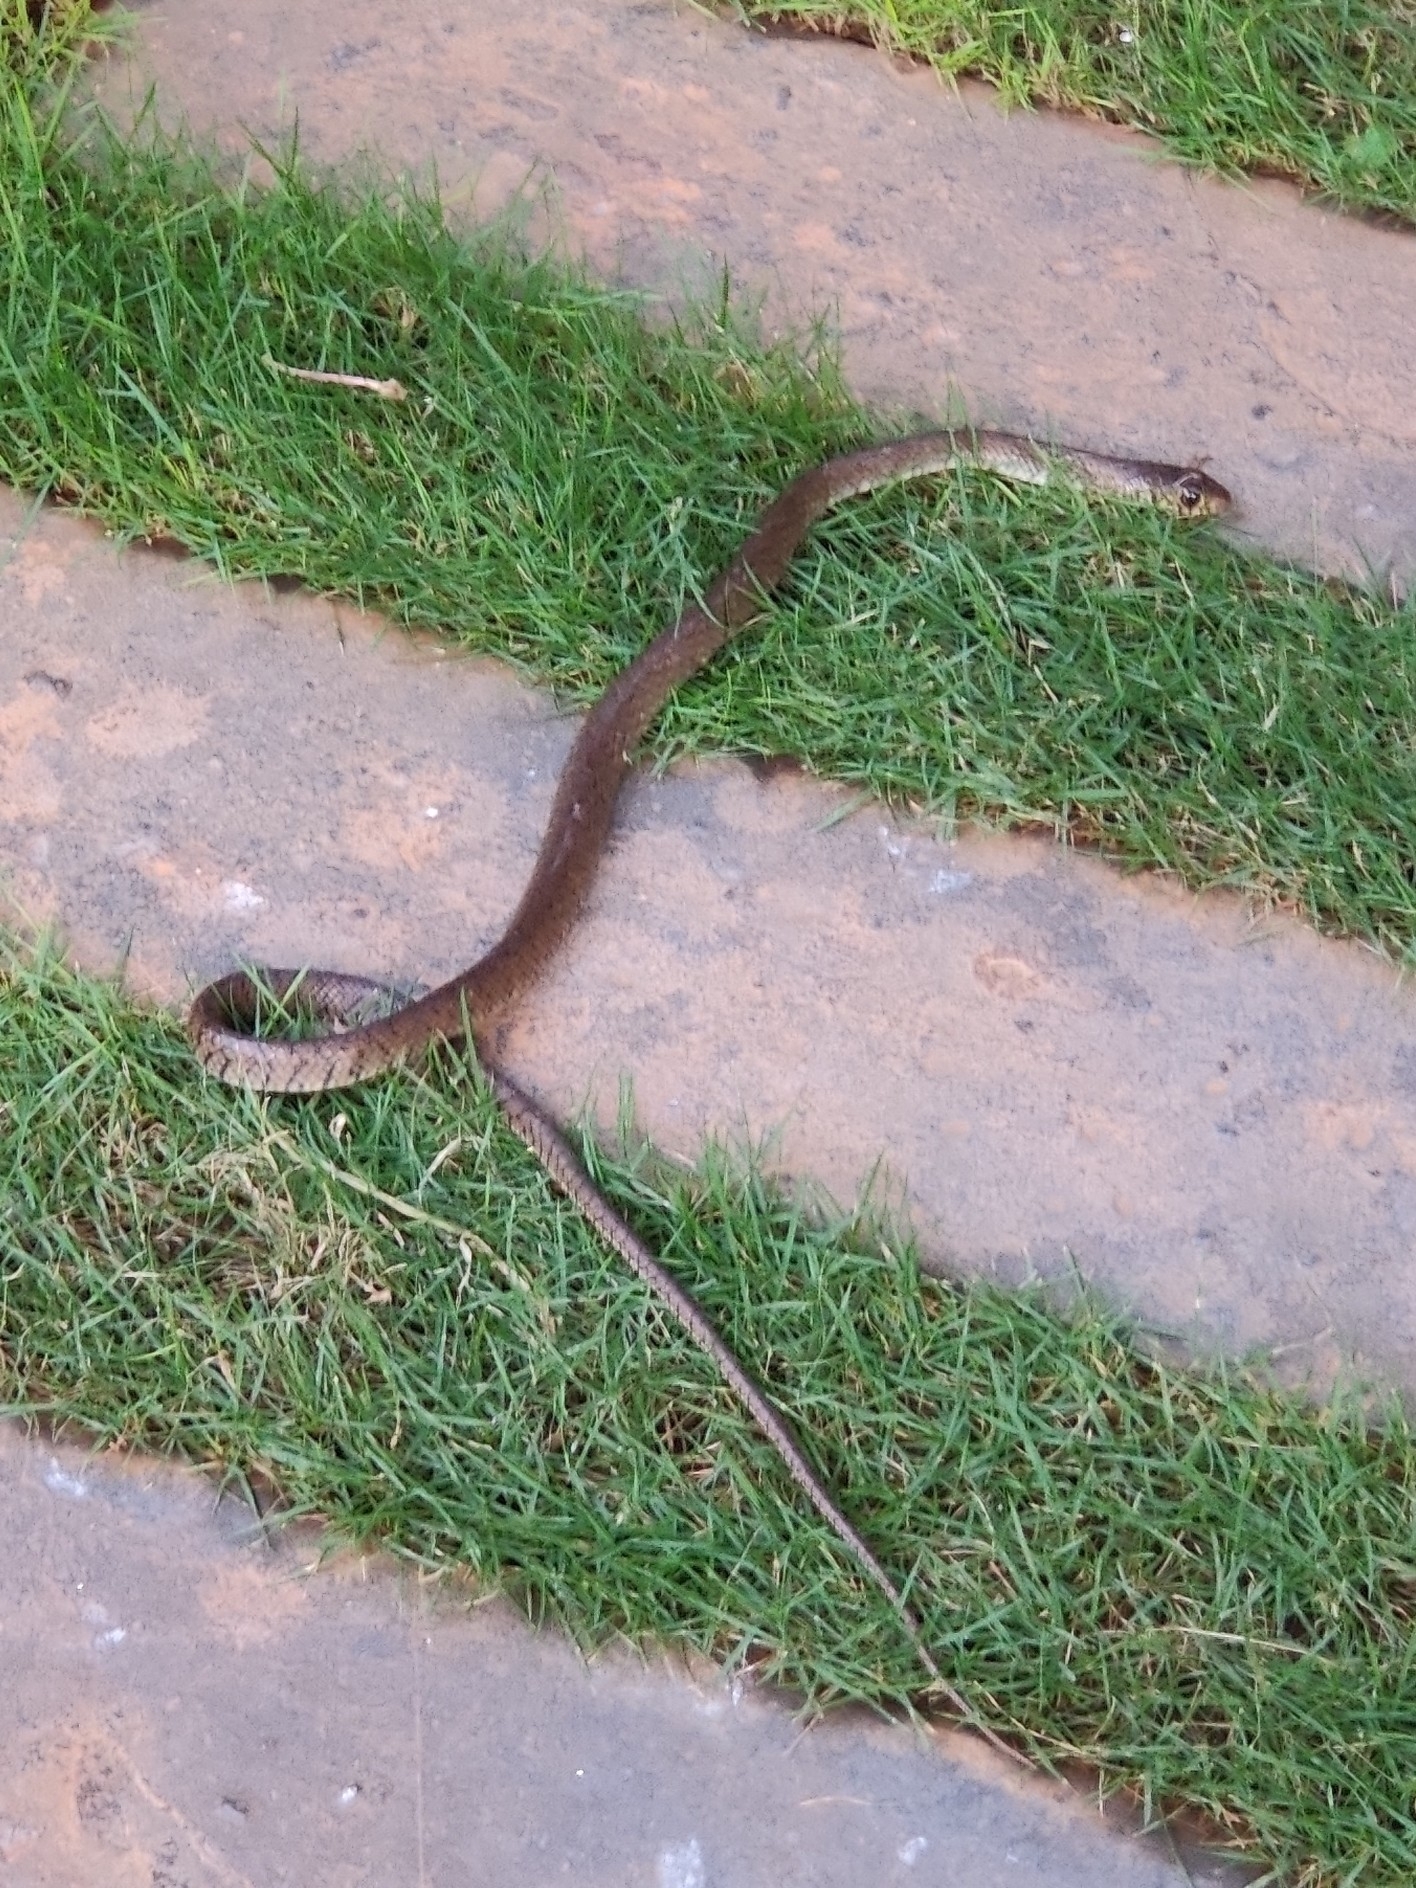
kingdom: Animalia
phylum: Chordata
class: Squamata
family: Colubridae
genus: Ptyas
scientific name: Ptyas mucosa
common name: Oriental ratsnake
